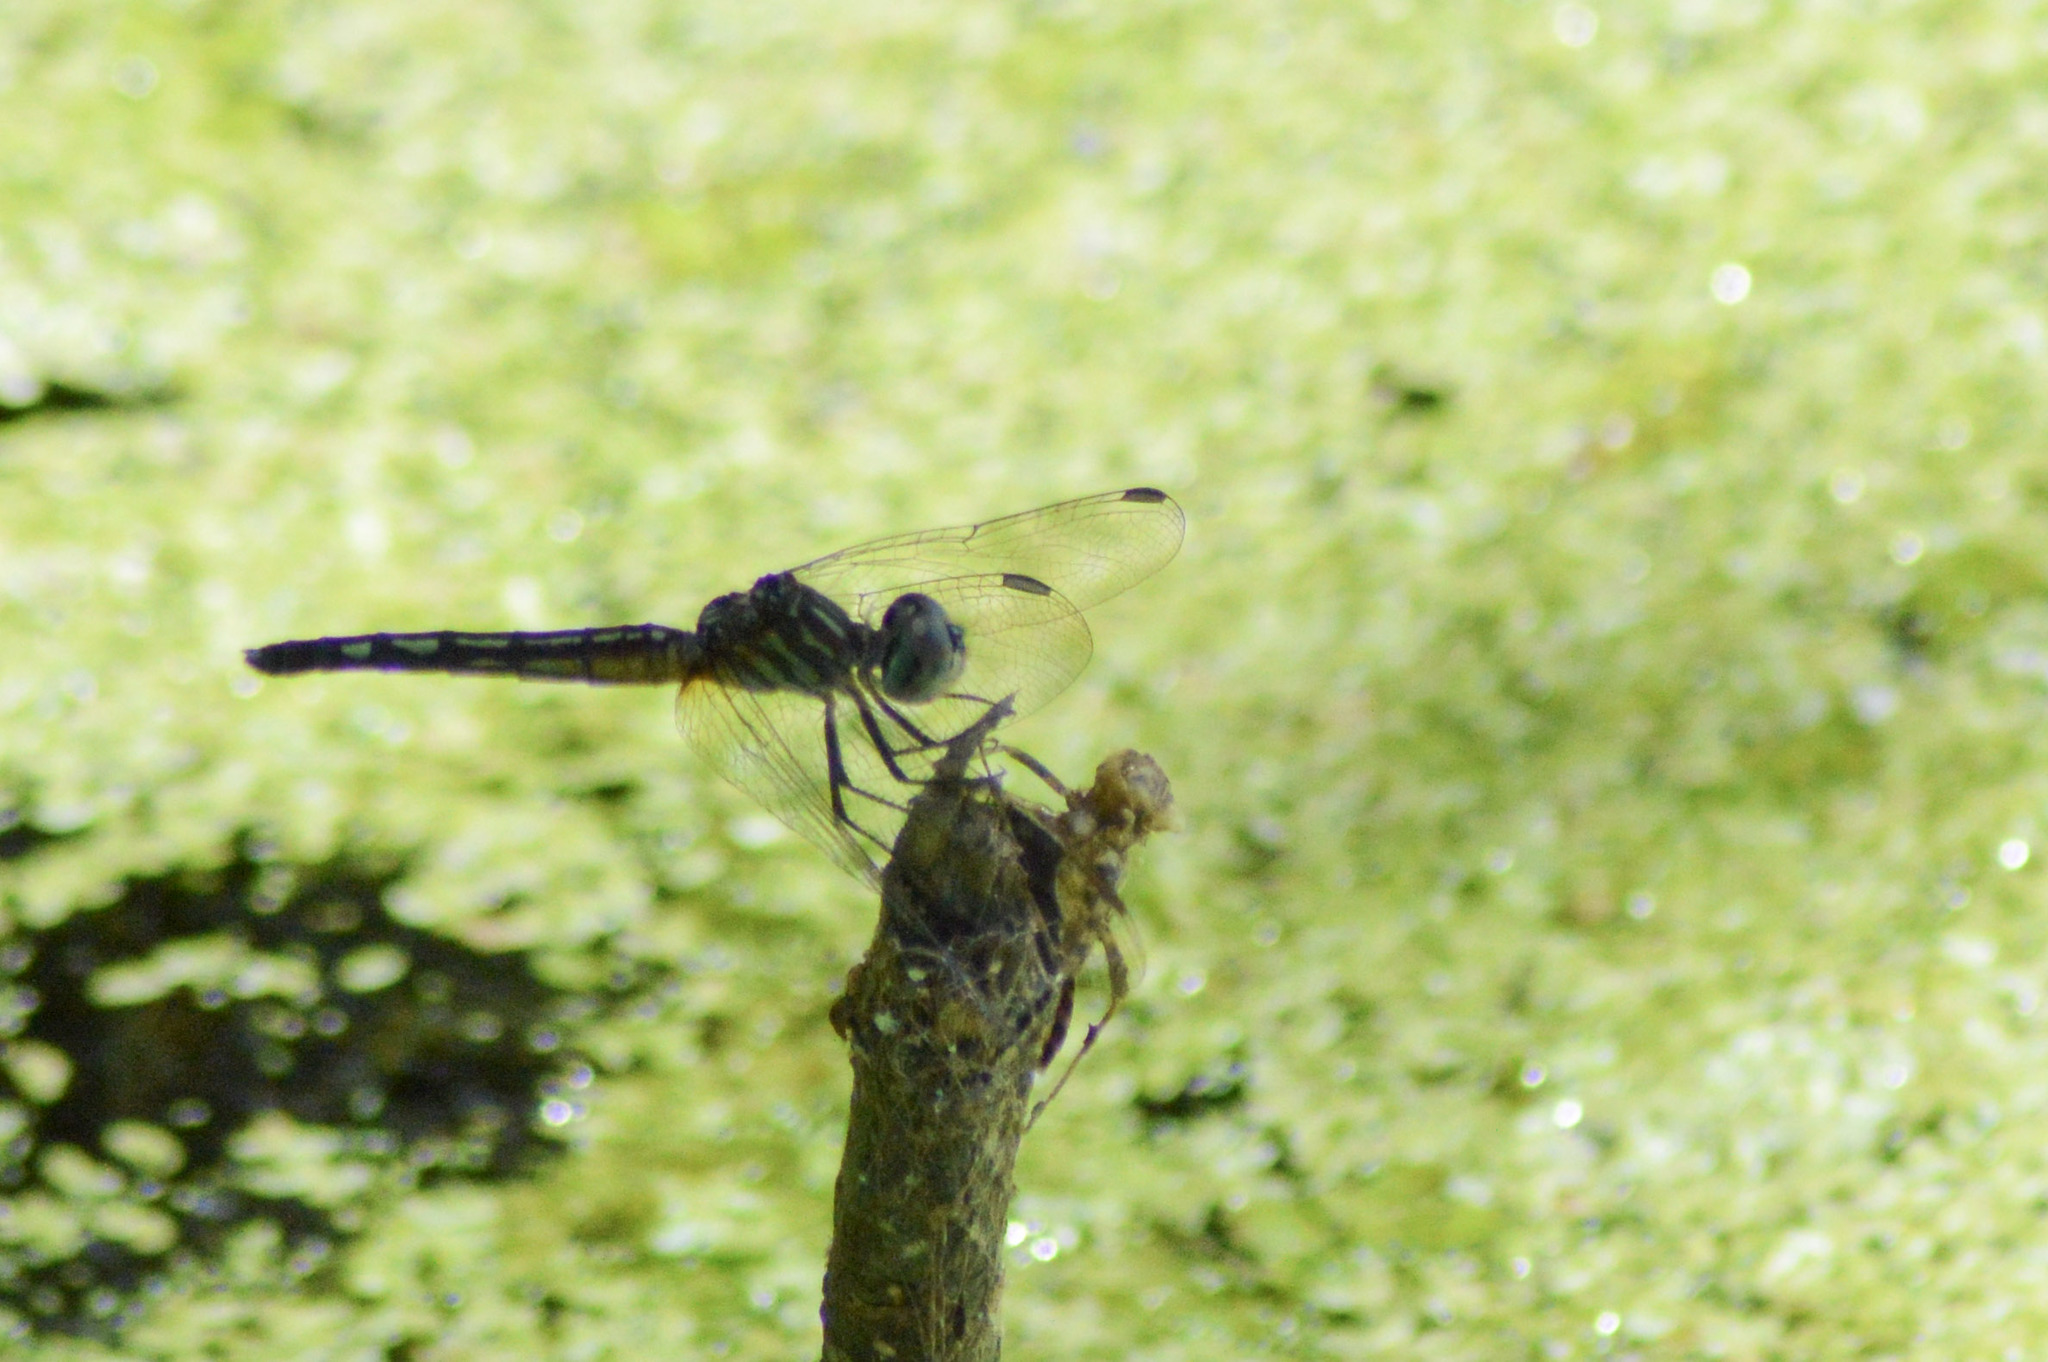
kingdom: Animalia
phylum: Arthropoda
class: Insecta
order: Odonata
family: Libellulidae
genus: Pachydiplax
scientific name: Pachydiplax longipennis
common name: Blue dasher
